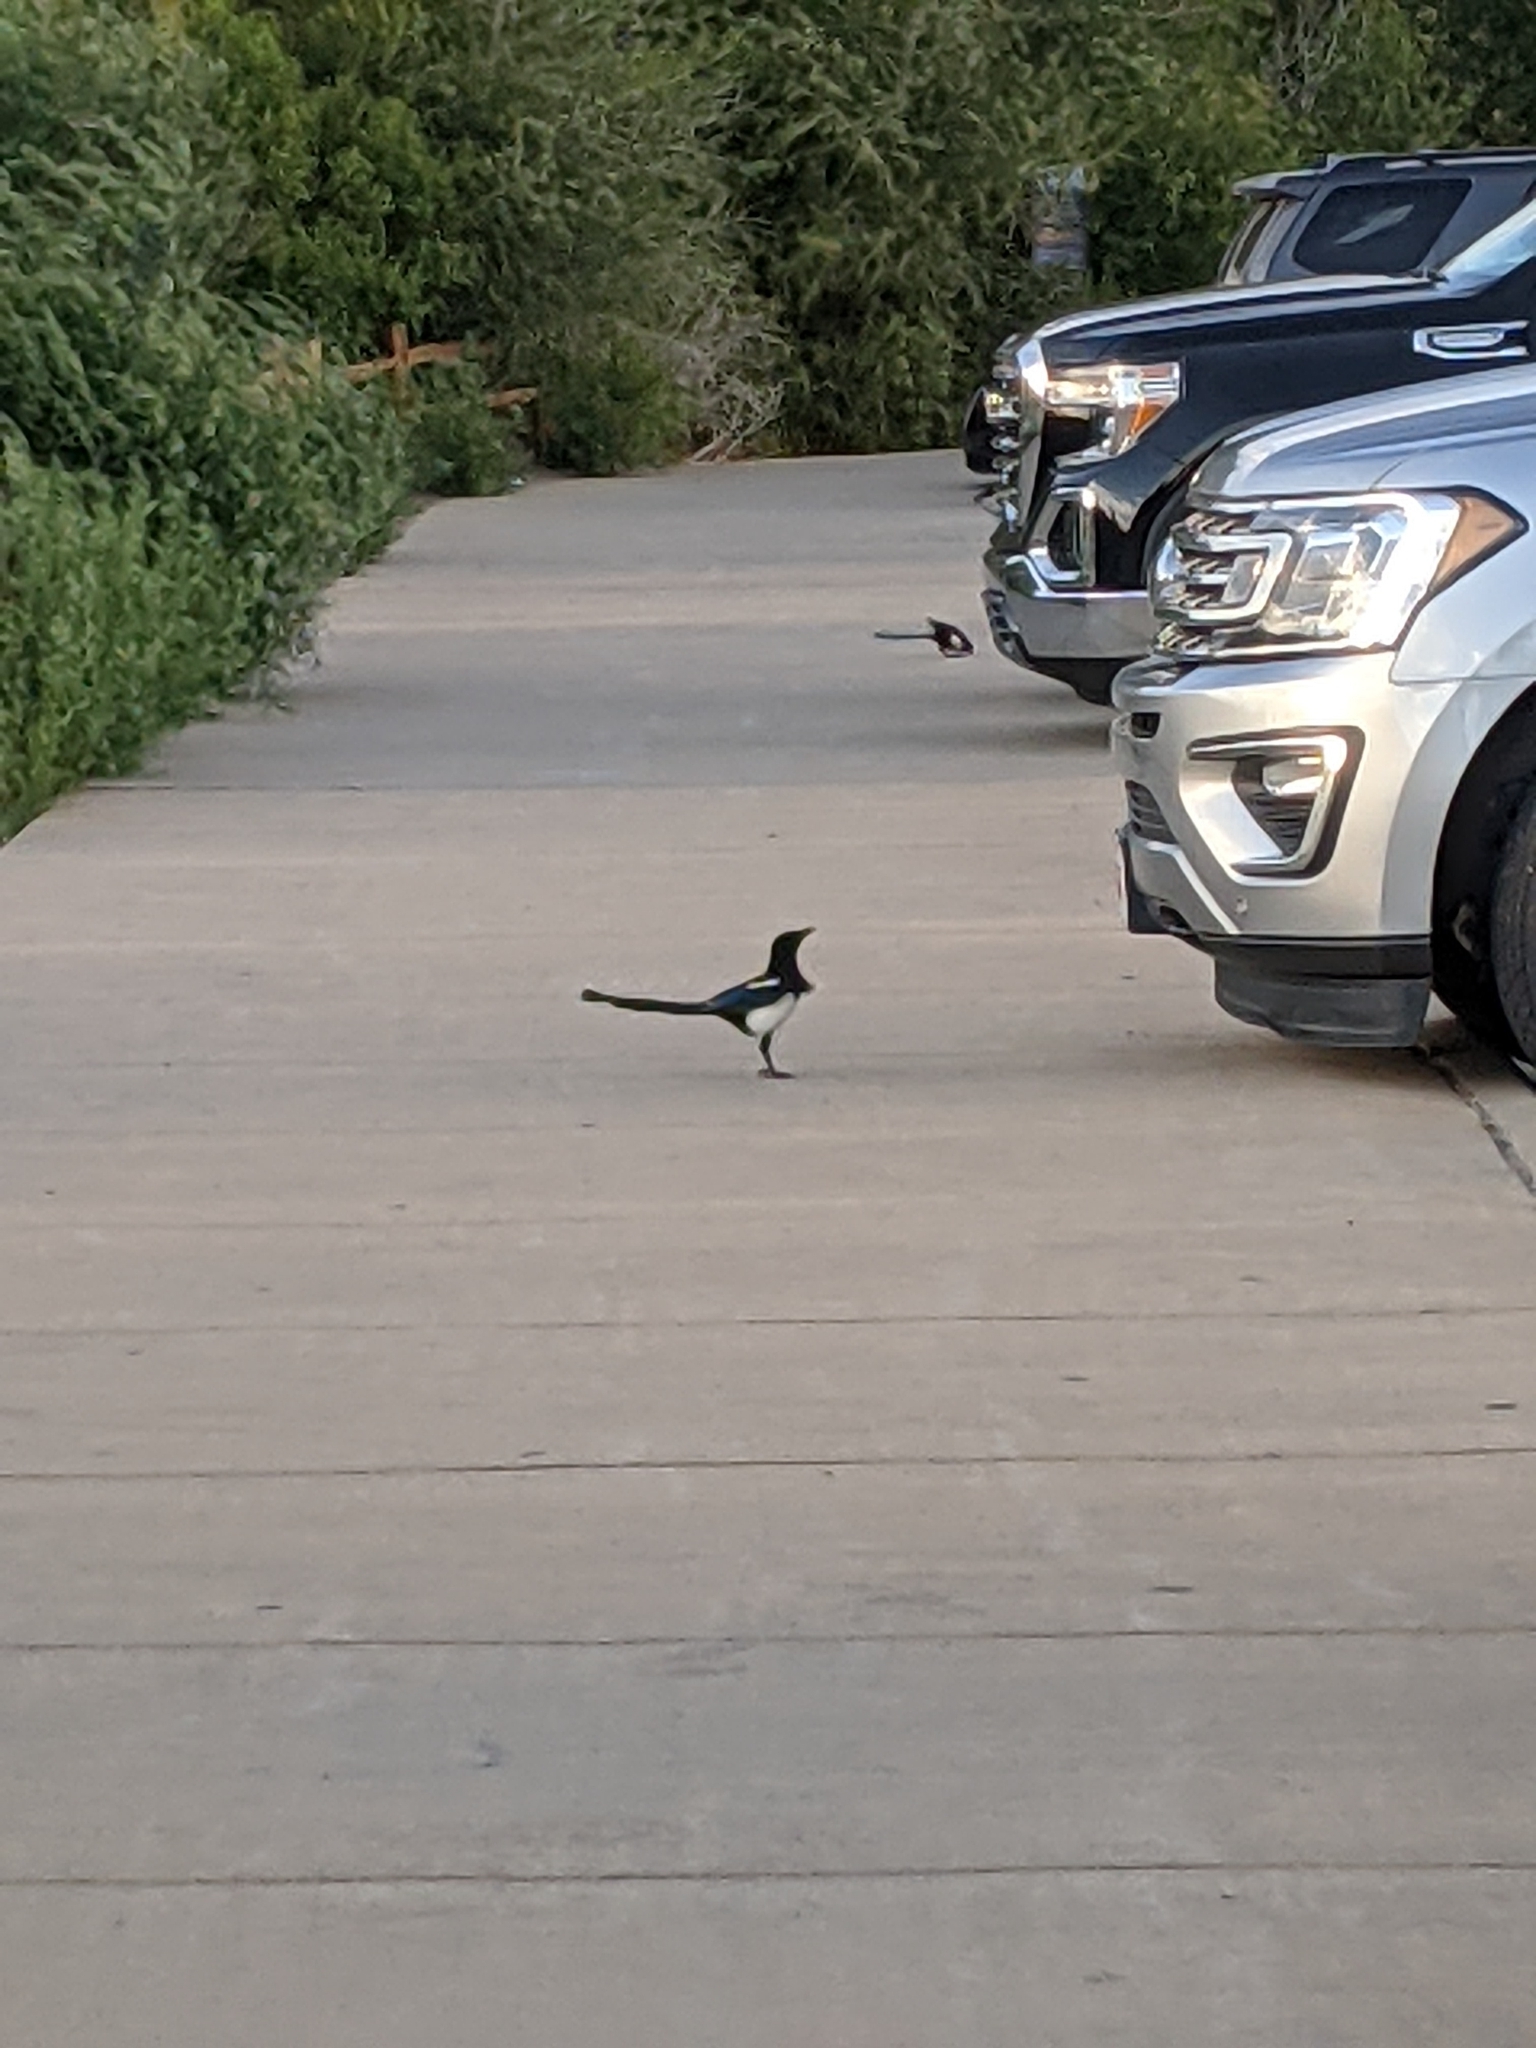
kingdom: Animalia
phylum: Chordata
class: Aves
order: Passeriformes
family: Corvidae
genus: Pica
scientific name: Pica hudsonia
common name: Black-billed magpie
